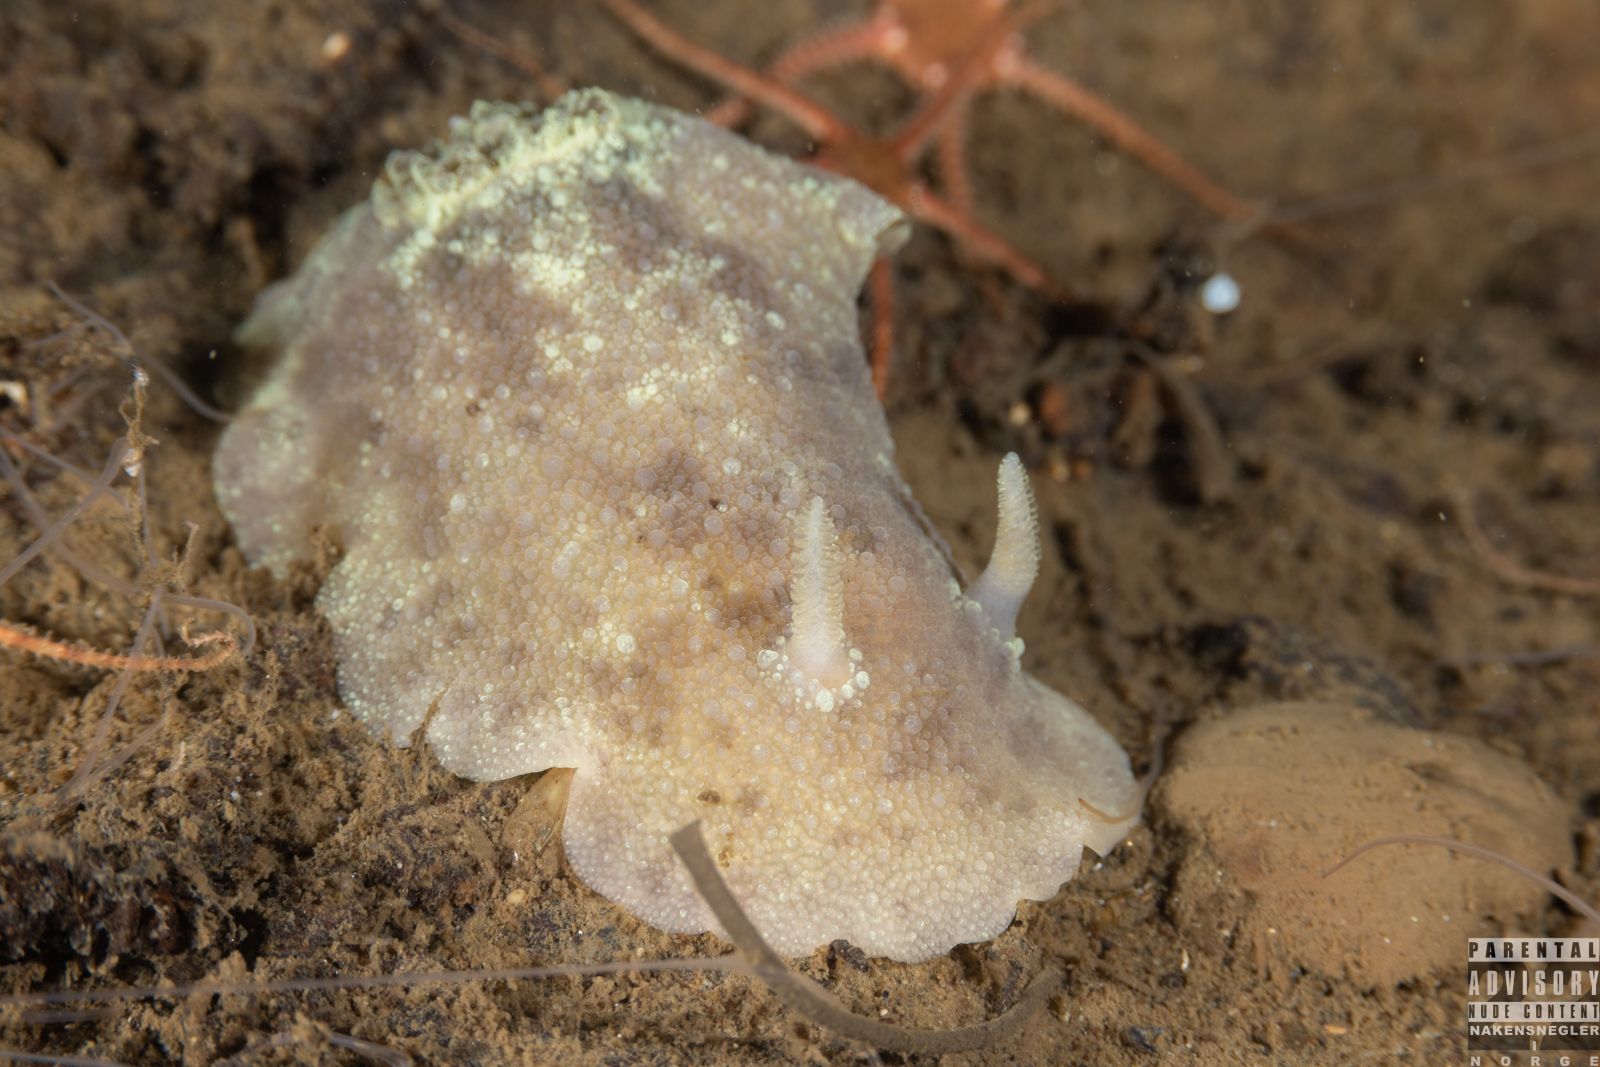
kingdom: Animalia
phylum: Mollusca
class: Gastropoda
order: Nudibranchia
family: Dorididae
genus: Doris
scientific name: Doris pseudoargus
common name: Sea lemon
